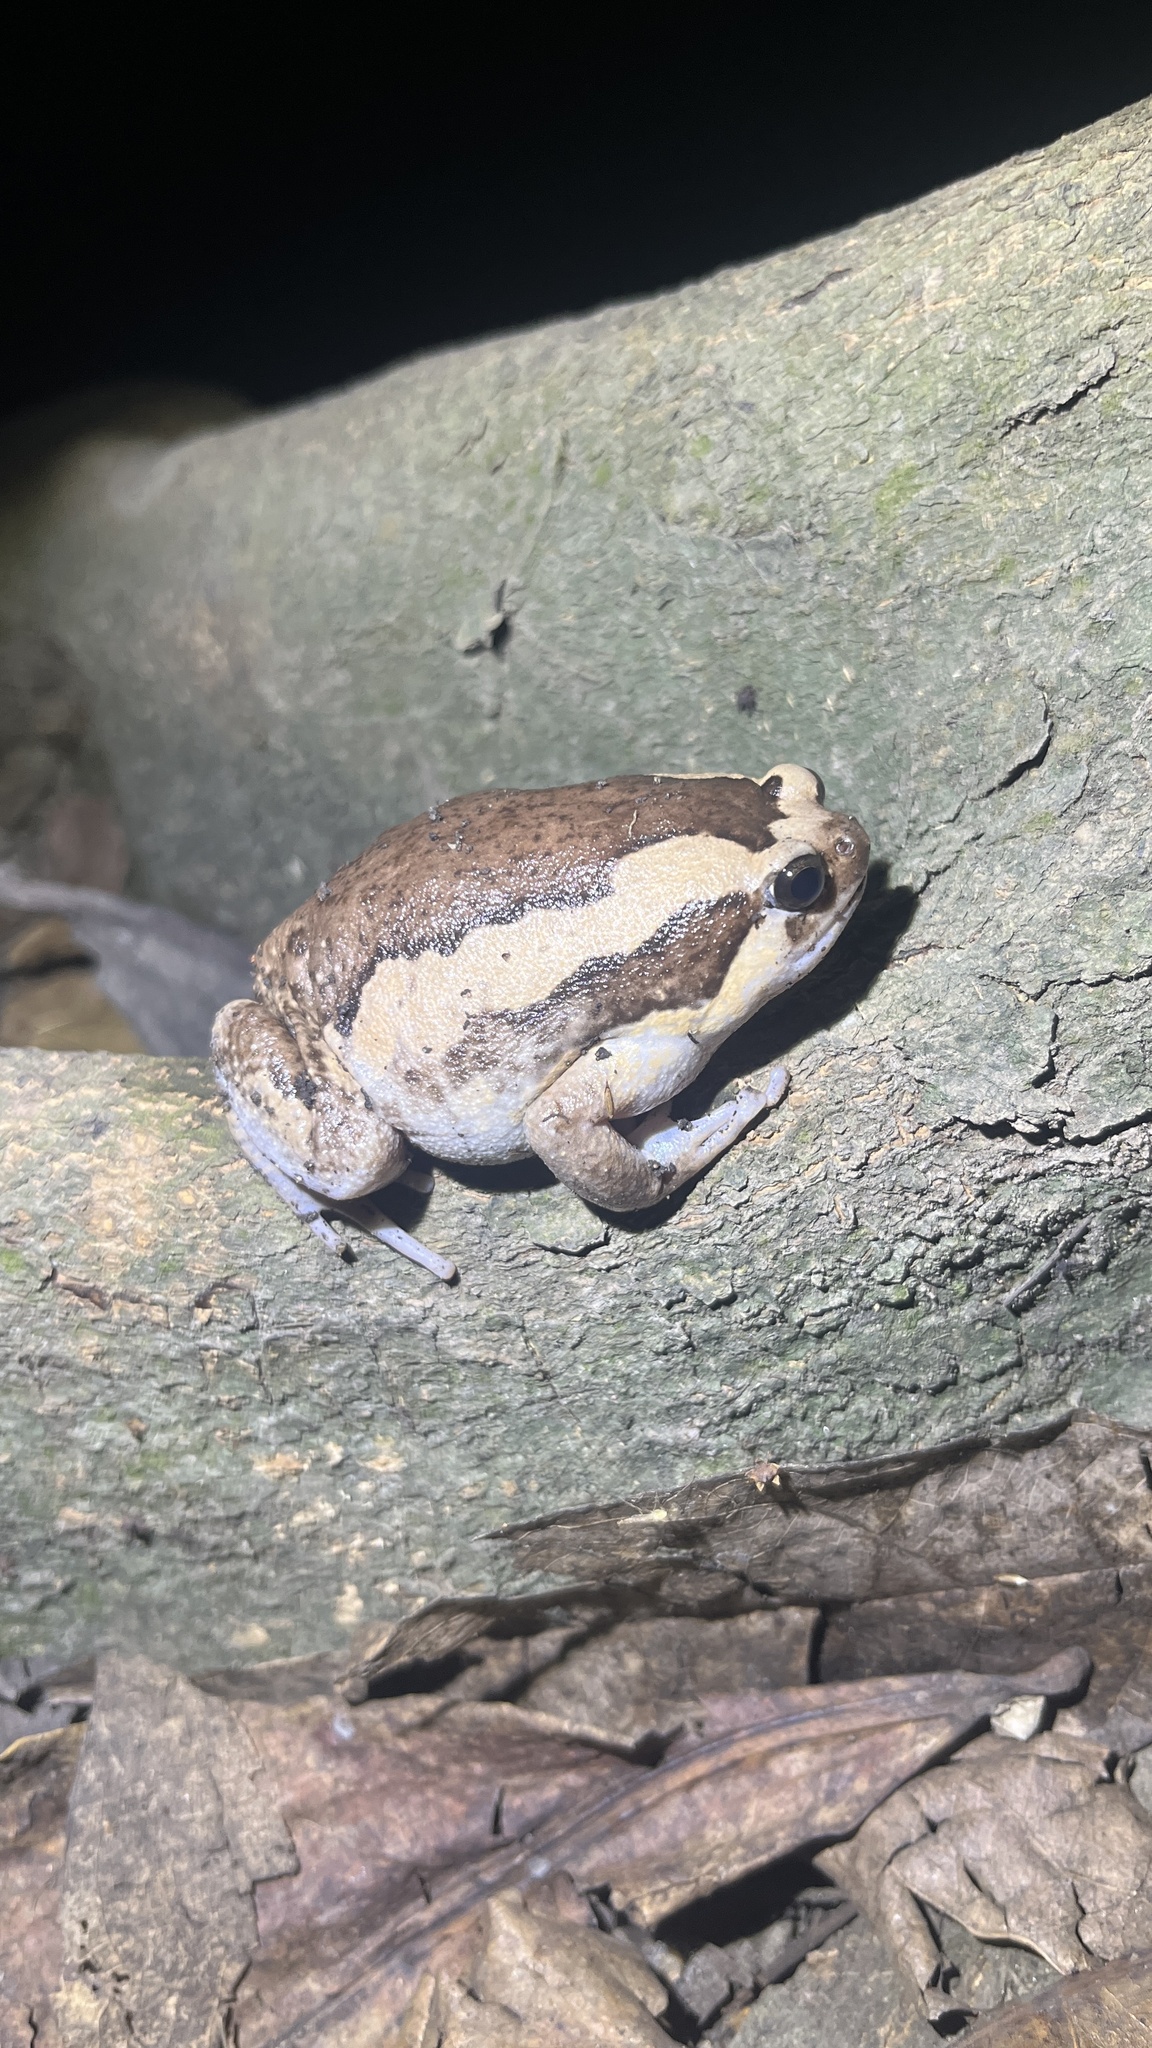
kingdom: Animalia
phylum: Chordata
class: Amphibia
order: Anura
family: Microhylidae
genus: Kaloula
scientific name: Kaloula pulchra
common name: Common,banded bullfrog
